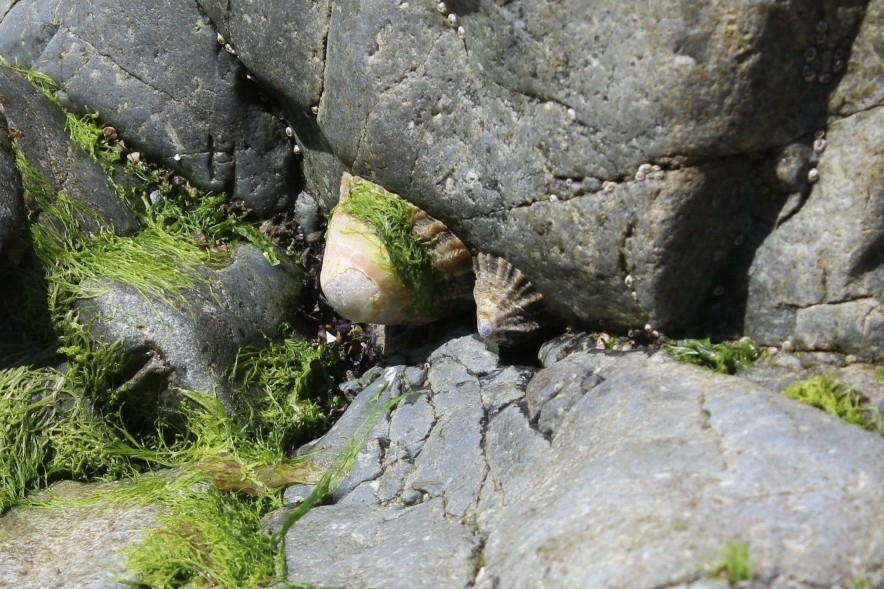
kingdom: Animalia
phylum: Mollusca
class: Gastropoda
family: Patellidae
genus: Patella
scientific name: Patella vulgata
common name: Common limpet
